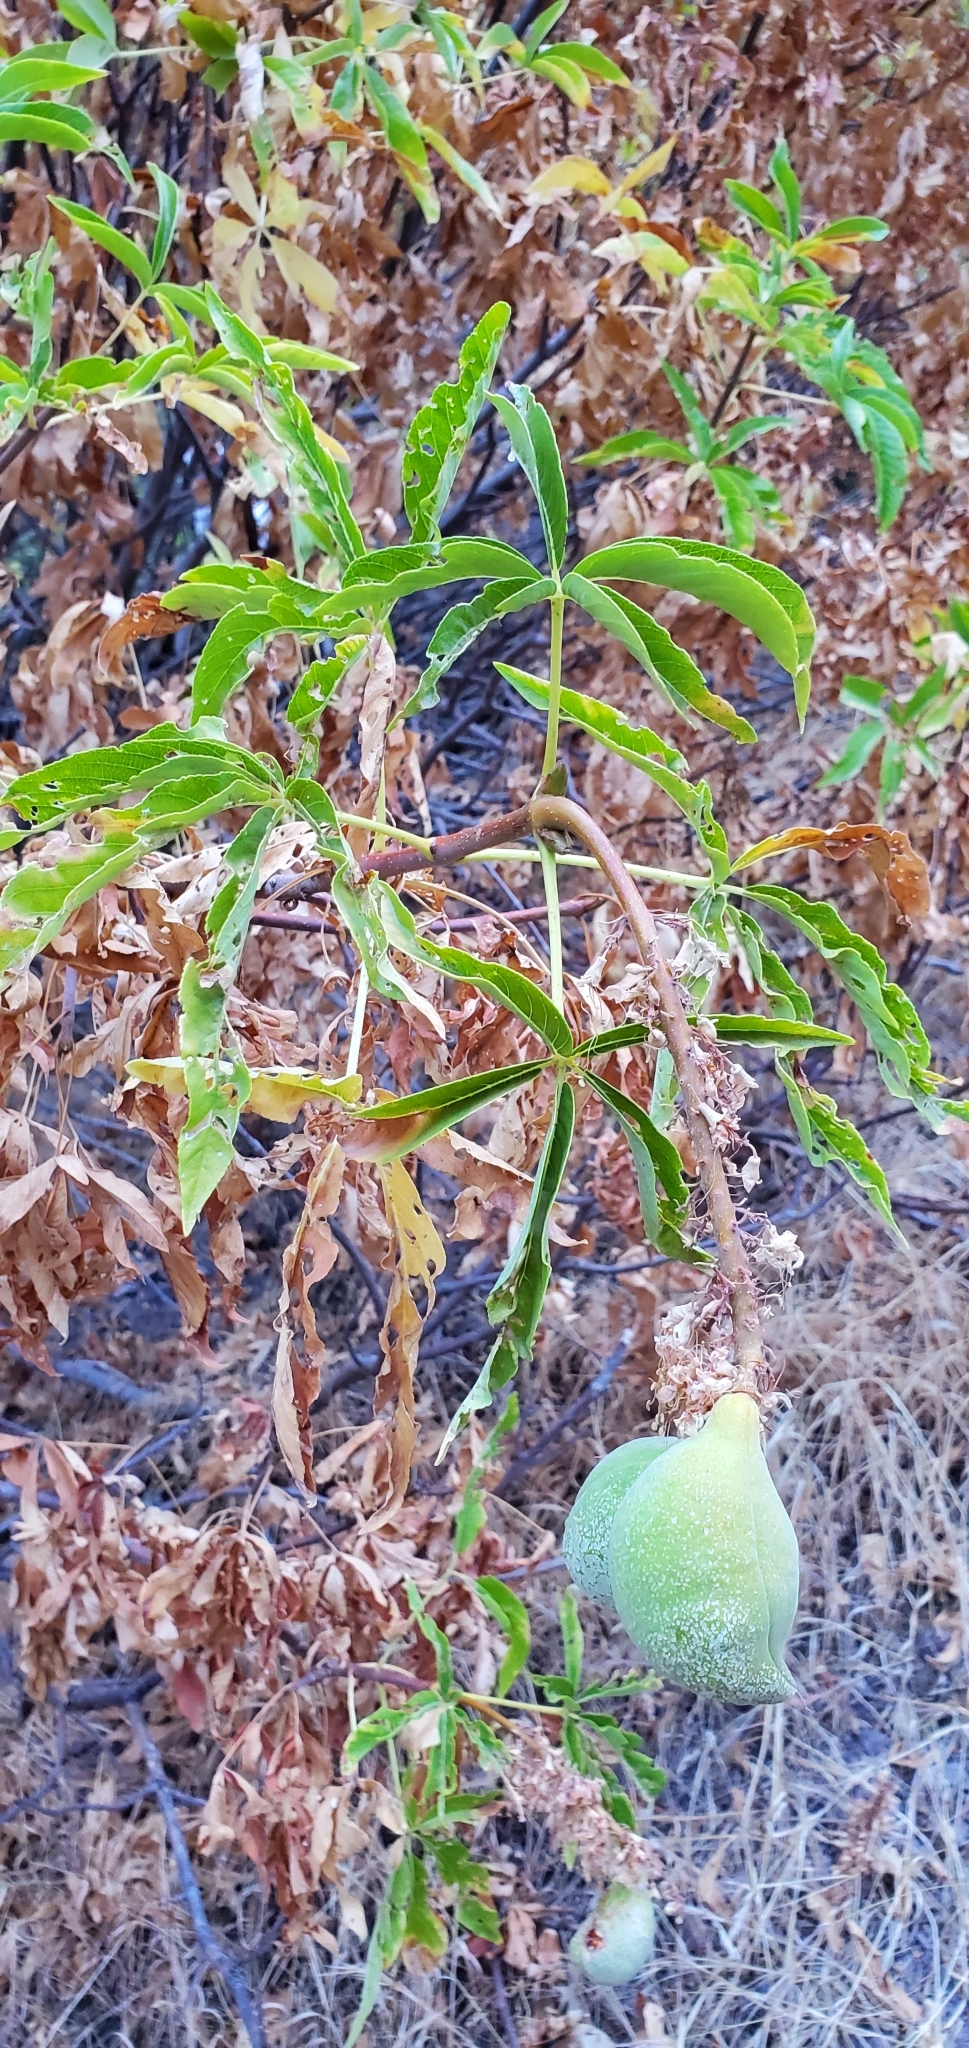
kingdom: Plantae
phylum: Tracheophyta
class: Magnoliopsida
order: Sapindales
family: Sapindaceae
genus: Aesculus
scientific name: Aesculus californica
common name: California buckeye
